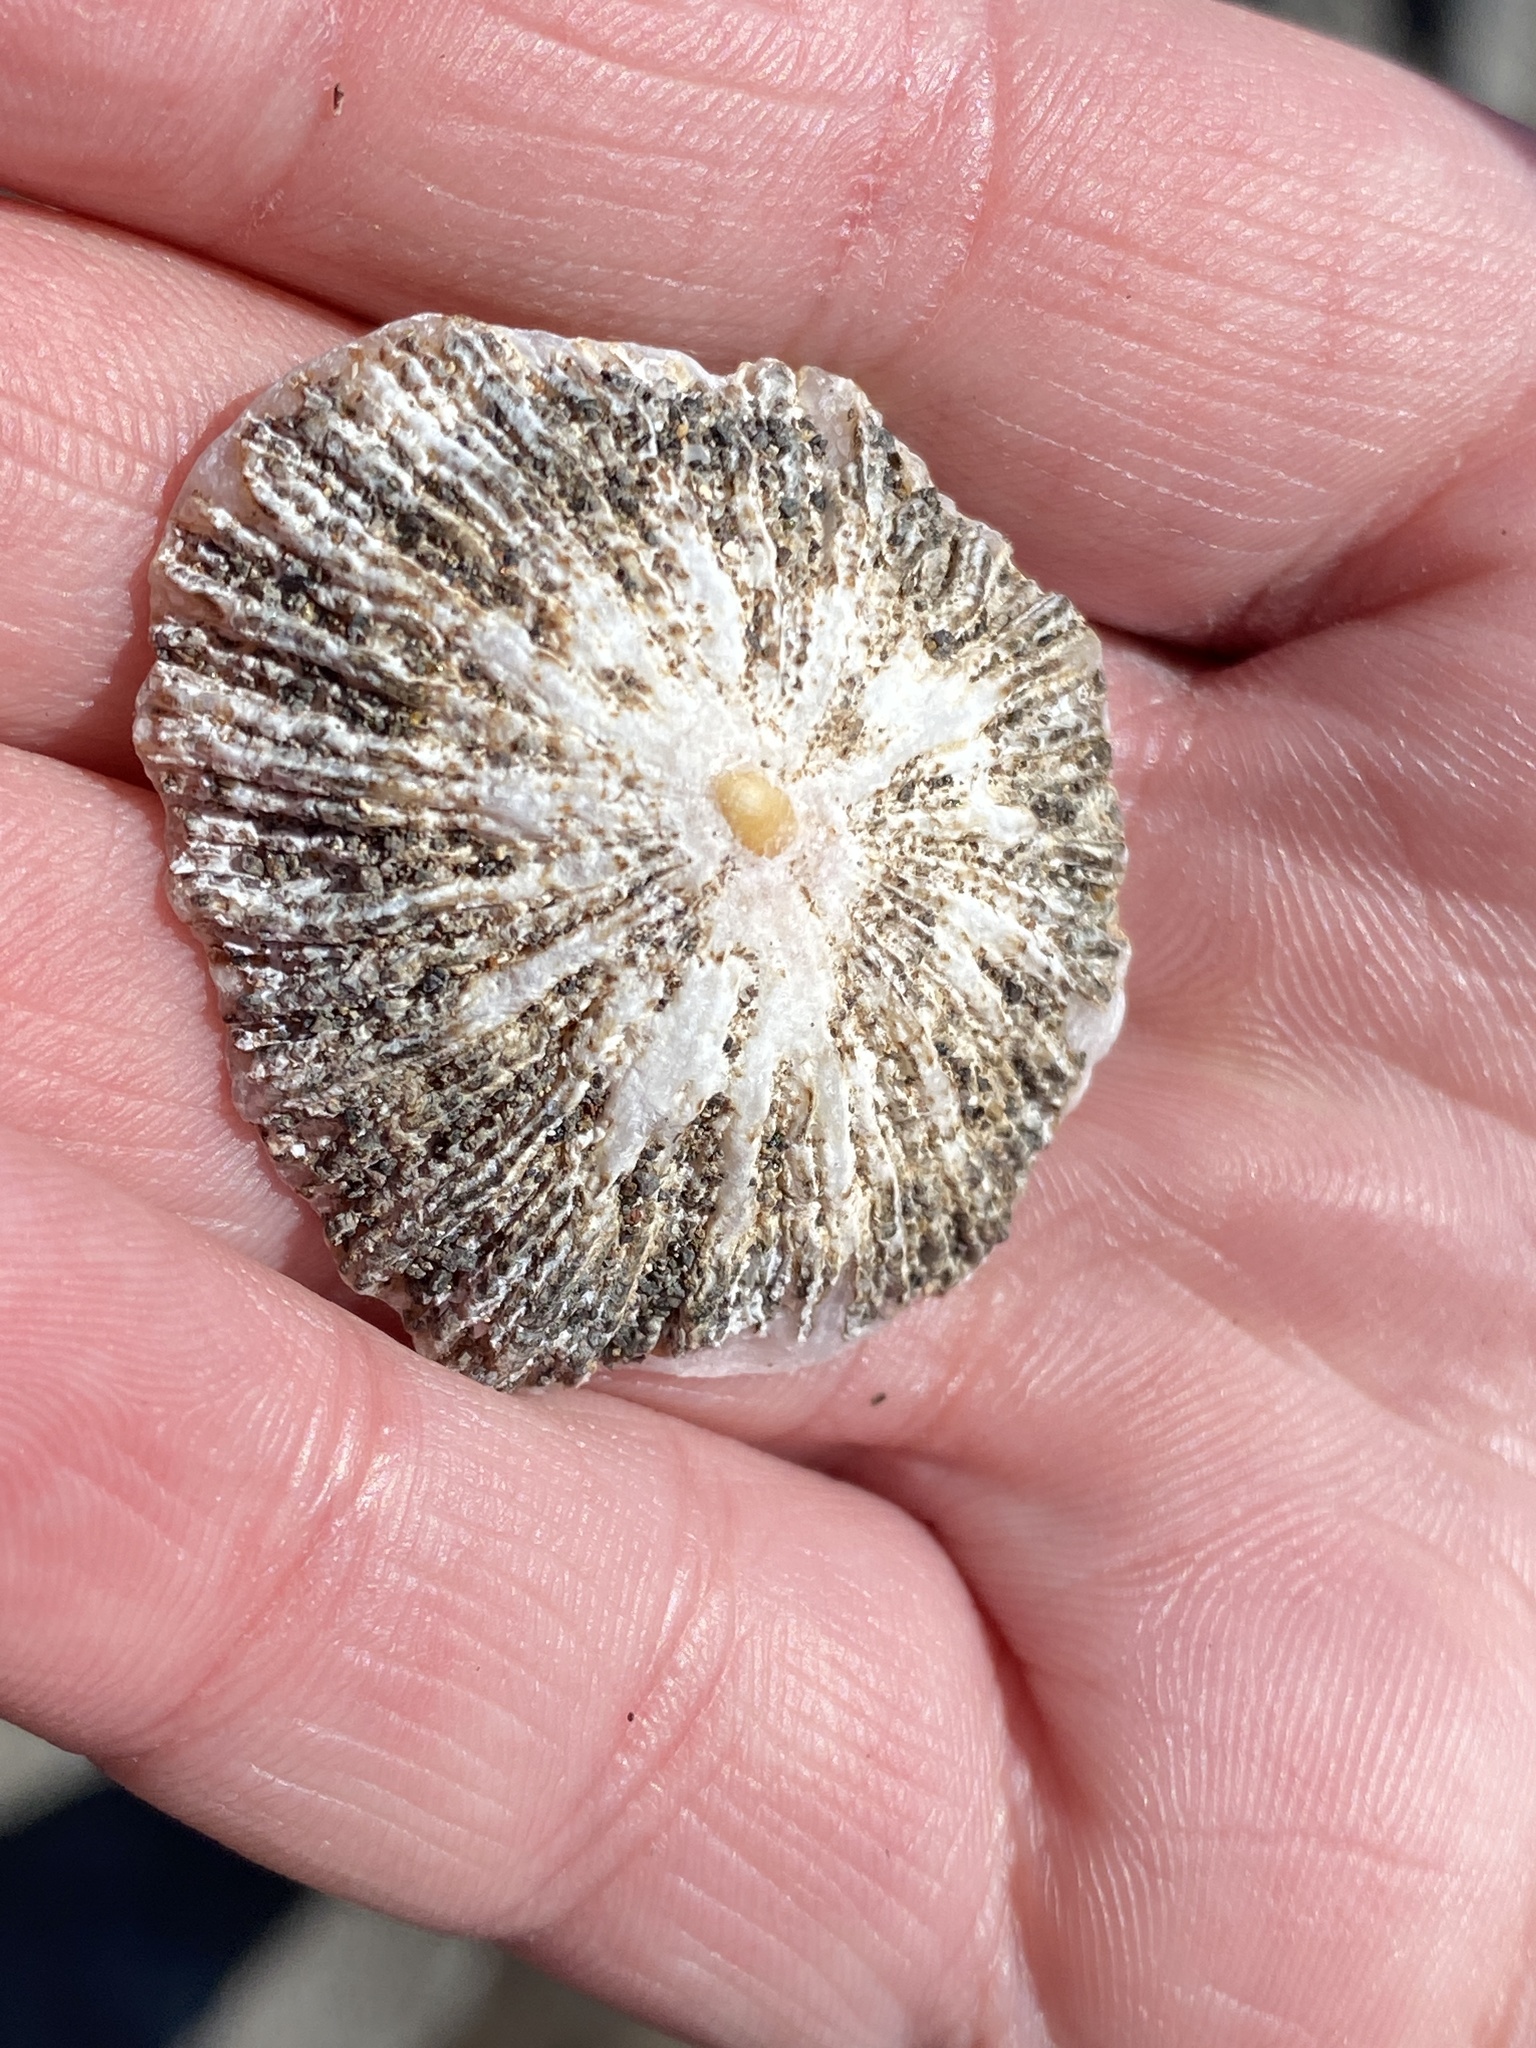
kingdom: Animalia
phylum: Mollusca
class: Gastropoda
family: Patellidae
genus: Patella
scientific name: Patella aspera
